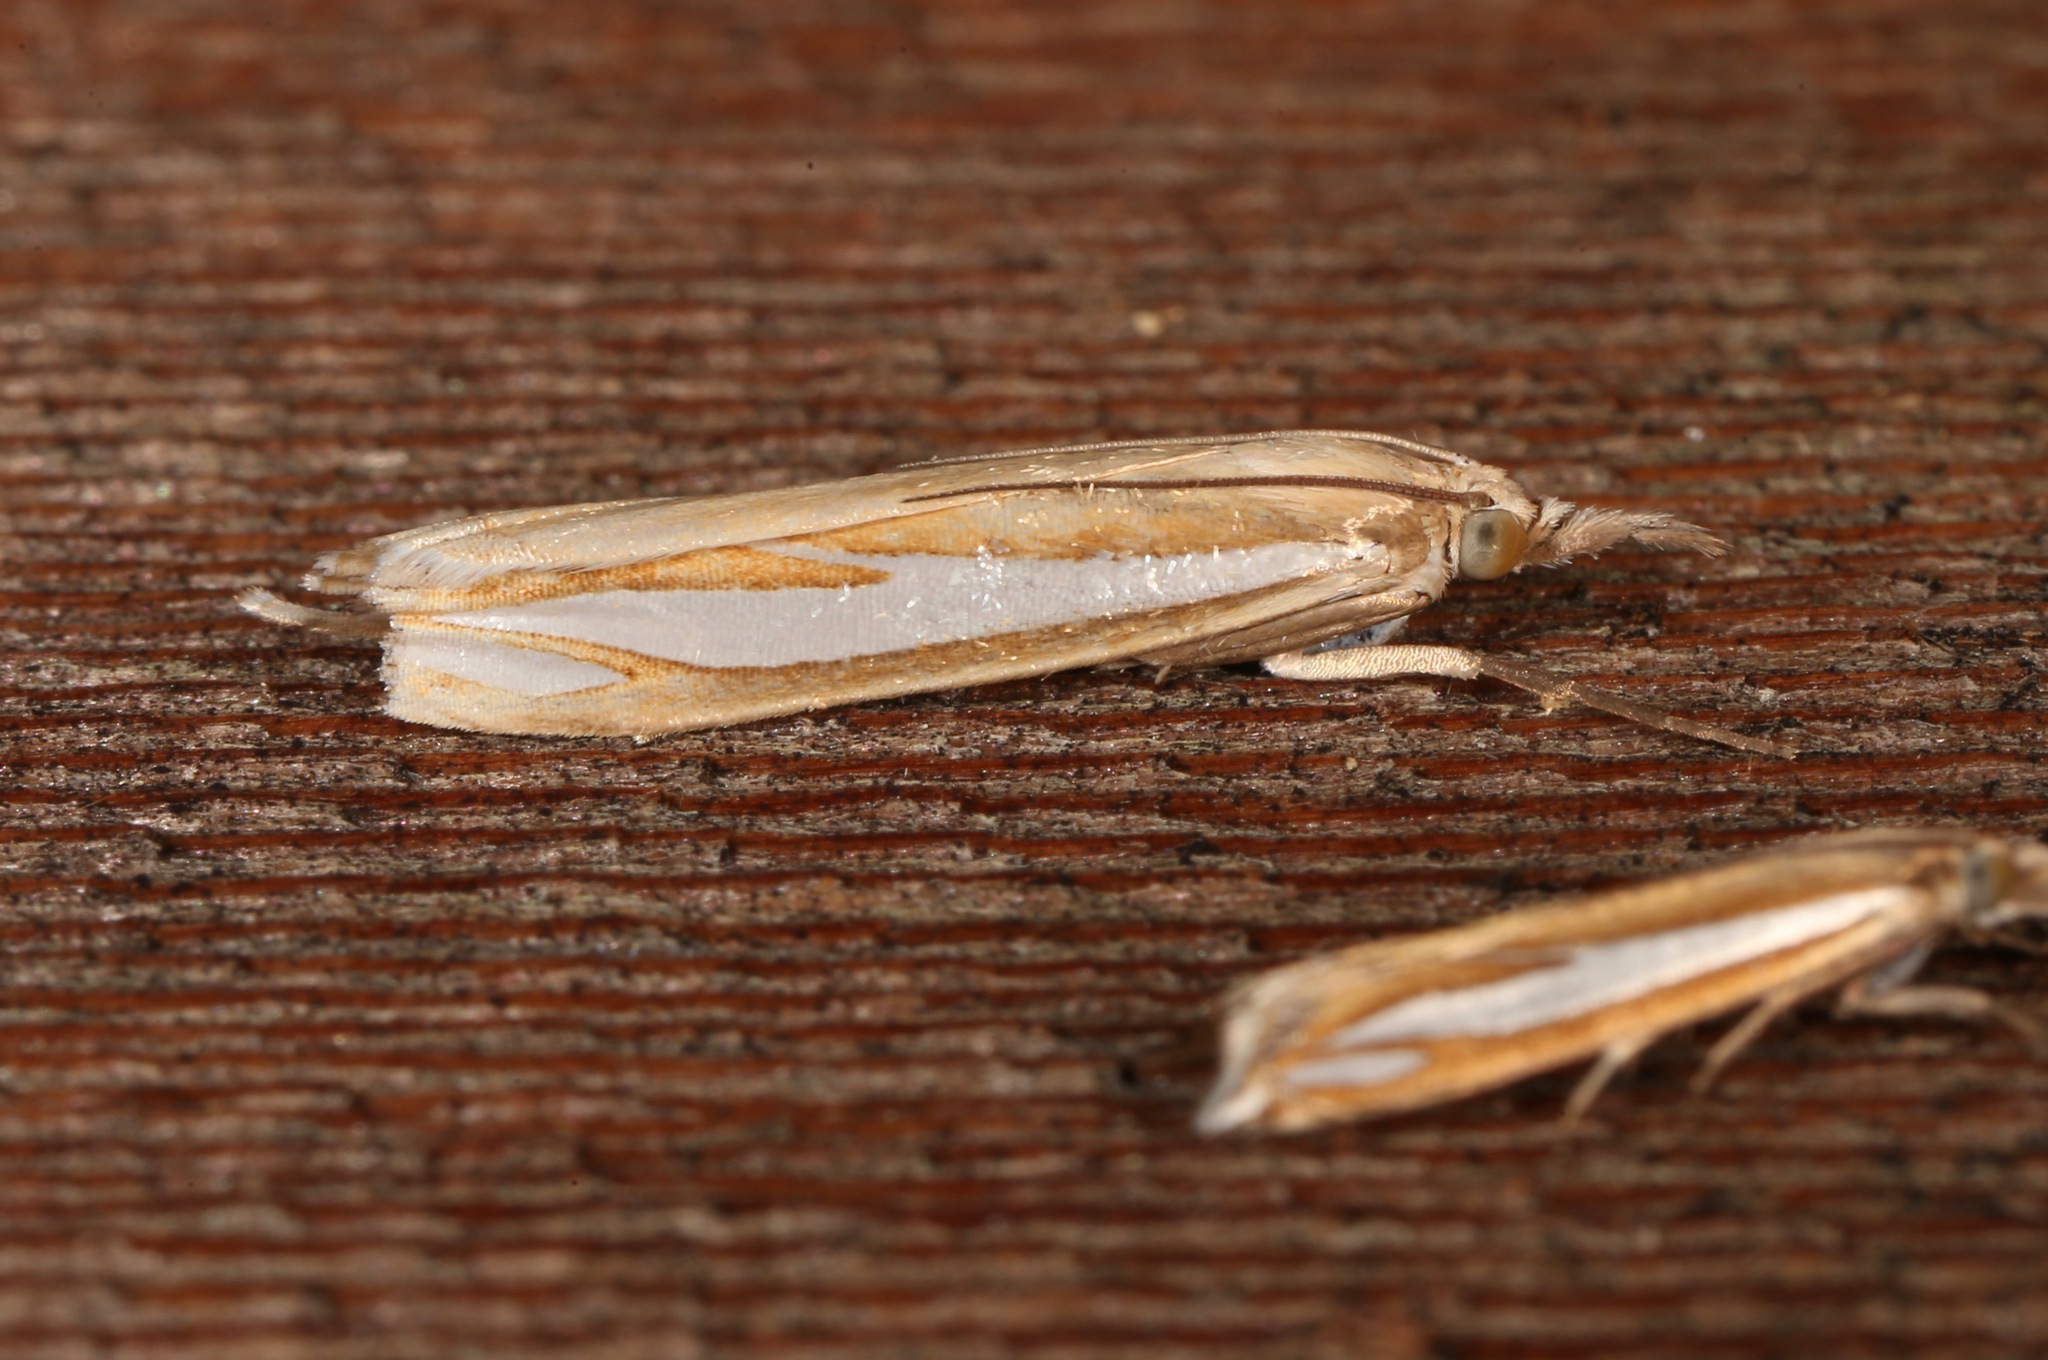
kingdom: Animalia
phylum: Arthropoda
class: Insecta
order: Lepidoptera
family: Crambidae
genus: Crambus
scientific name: Crambus satrapellus
